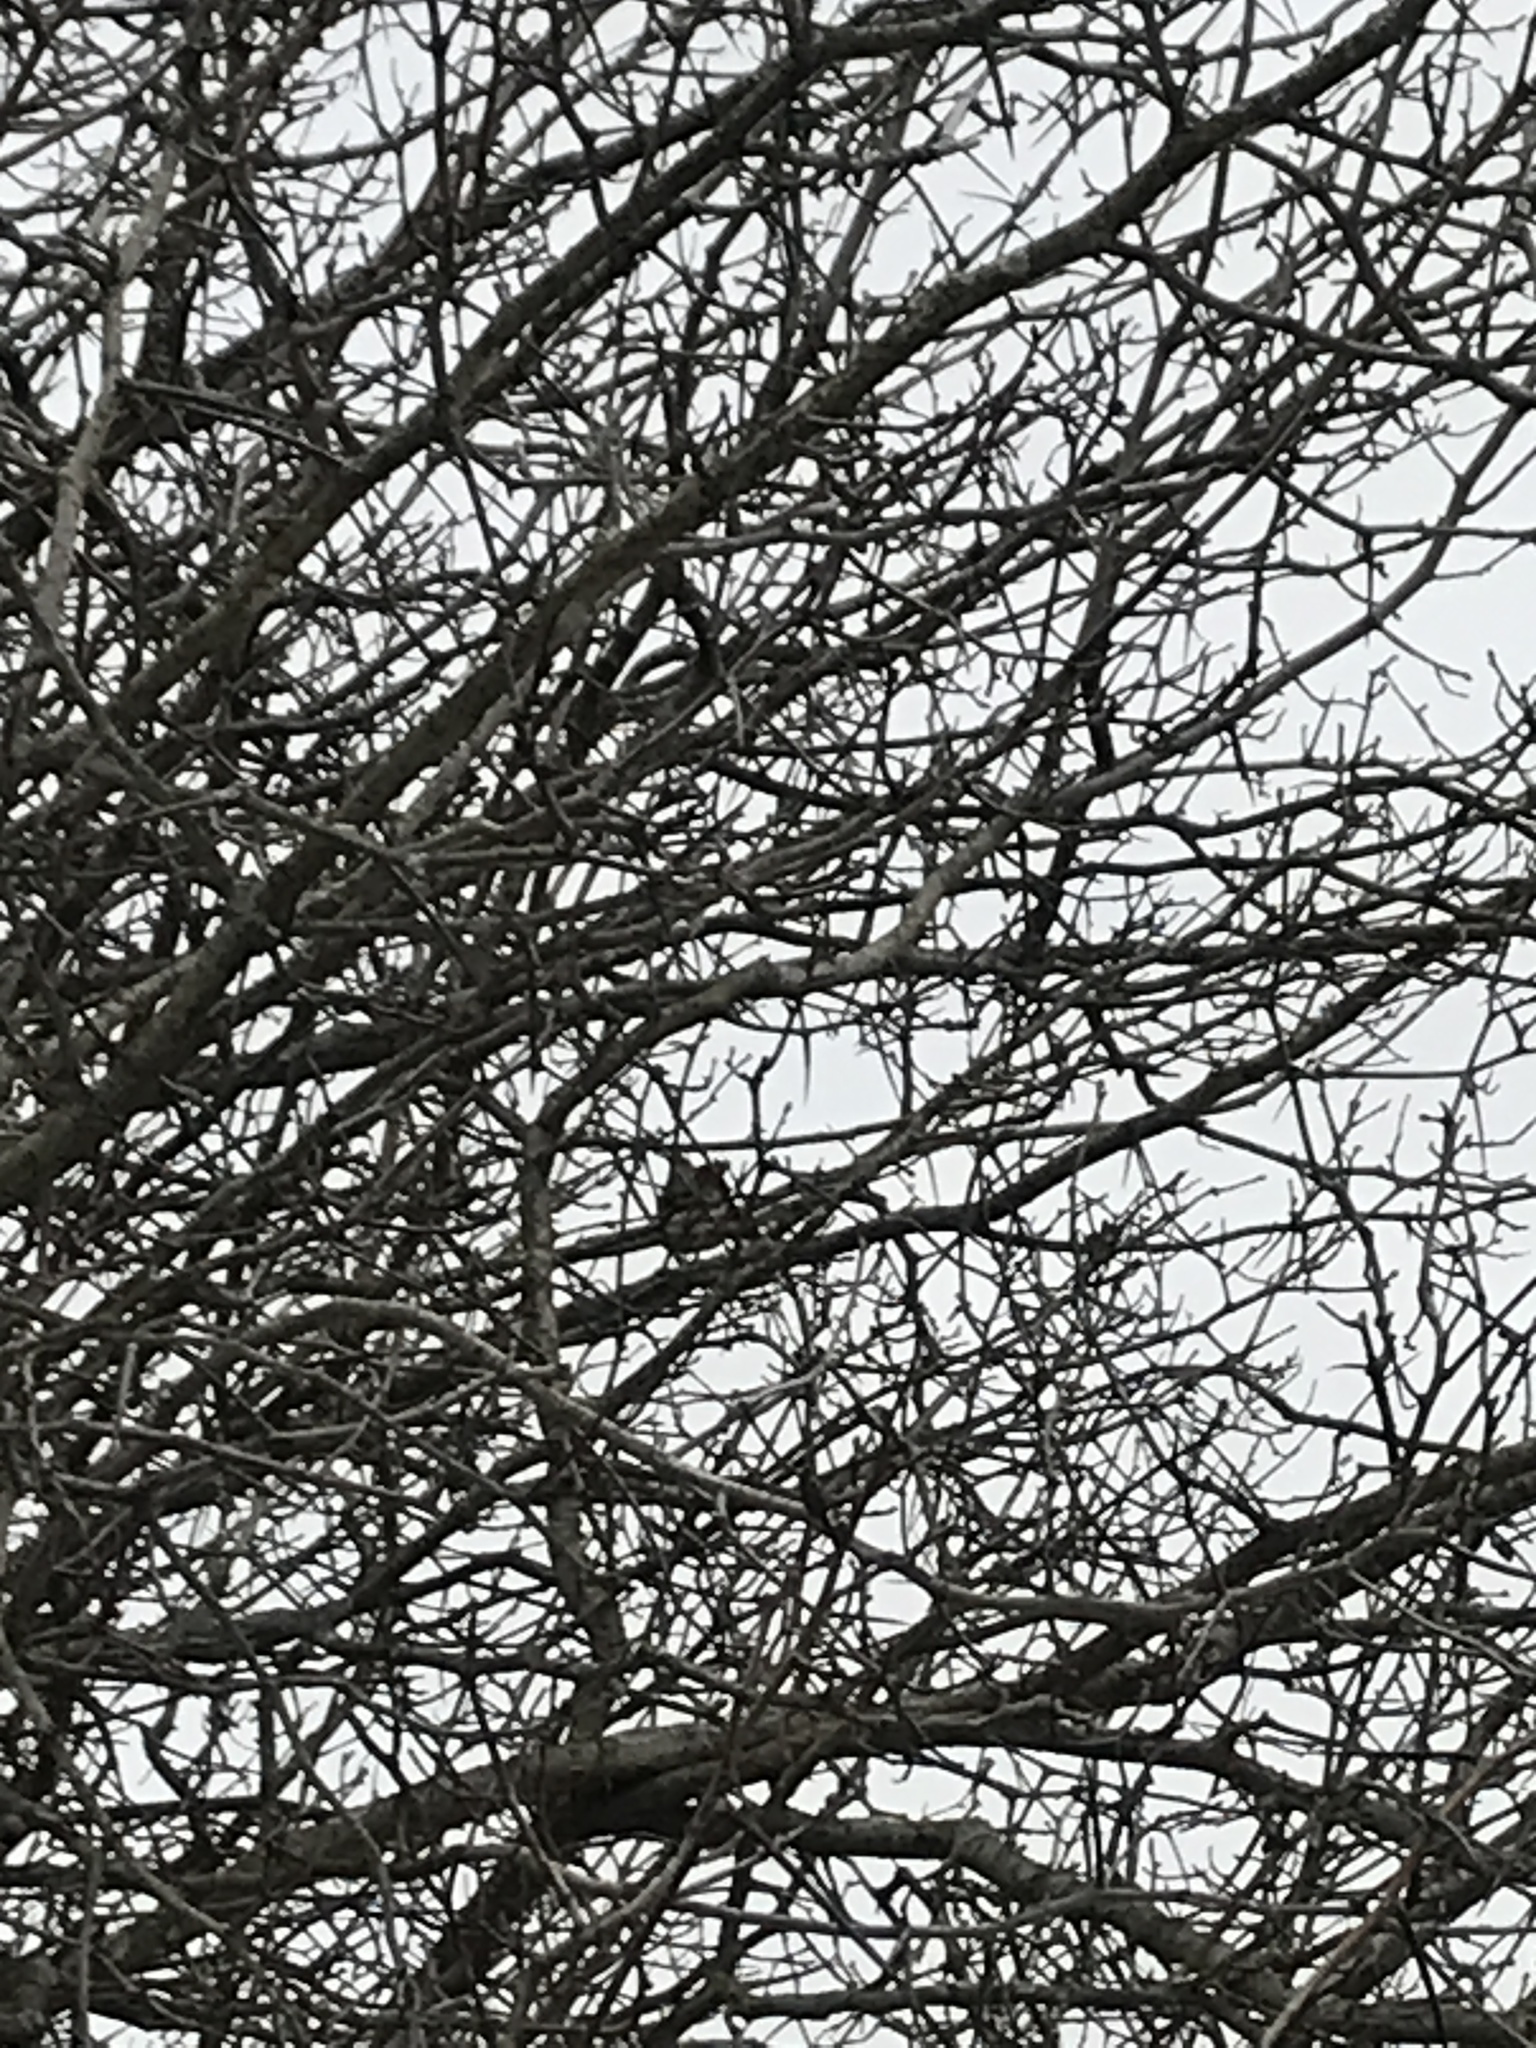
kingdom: Animalia
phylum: Chordata
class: Aves
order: Passeriformes
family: Cardinalidae
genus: Cardinalis
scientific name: Cardinalis cardinalis
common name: Northern cardinal
